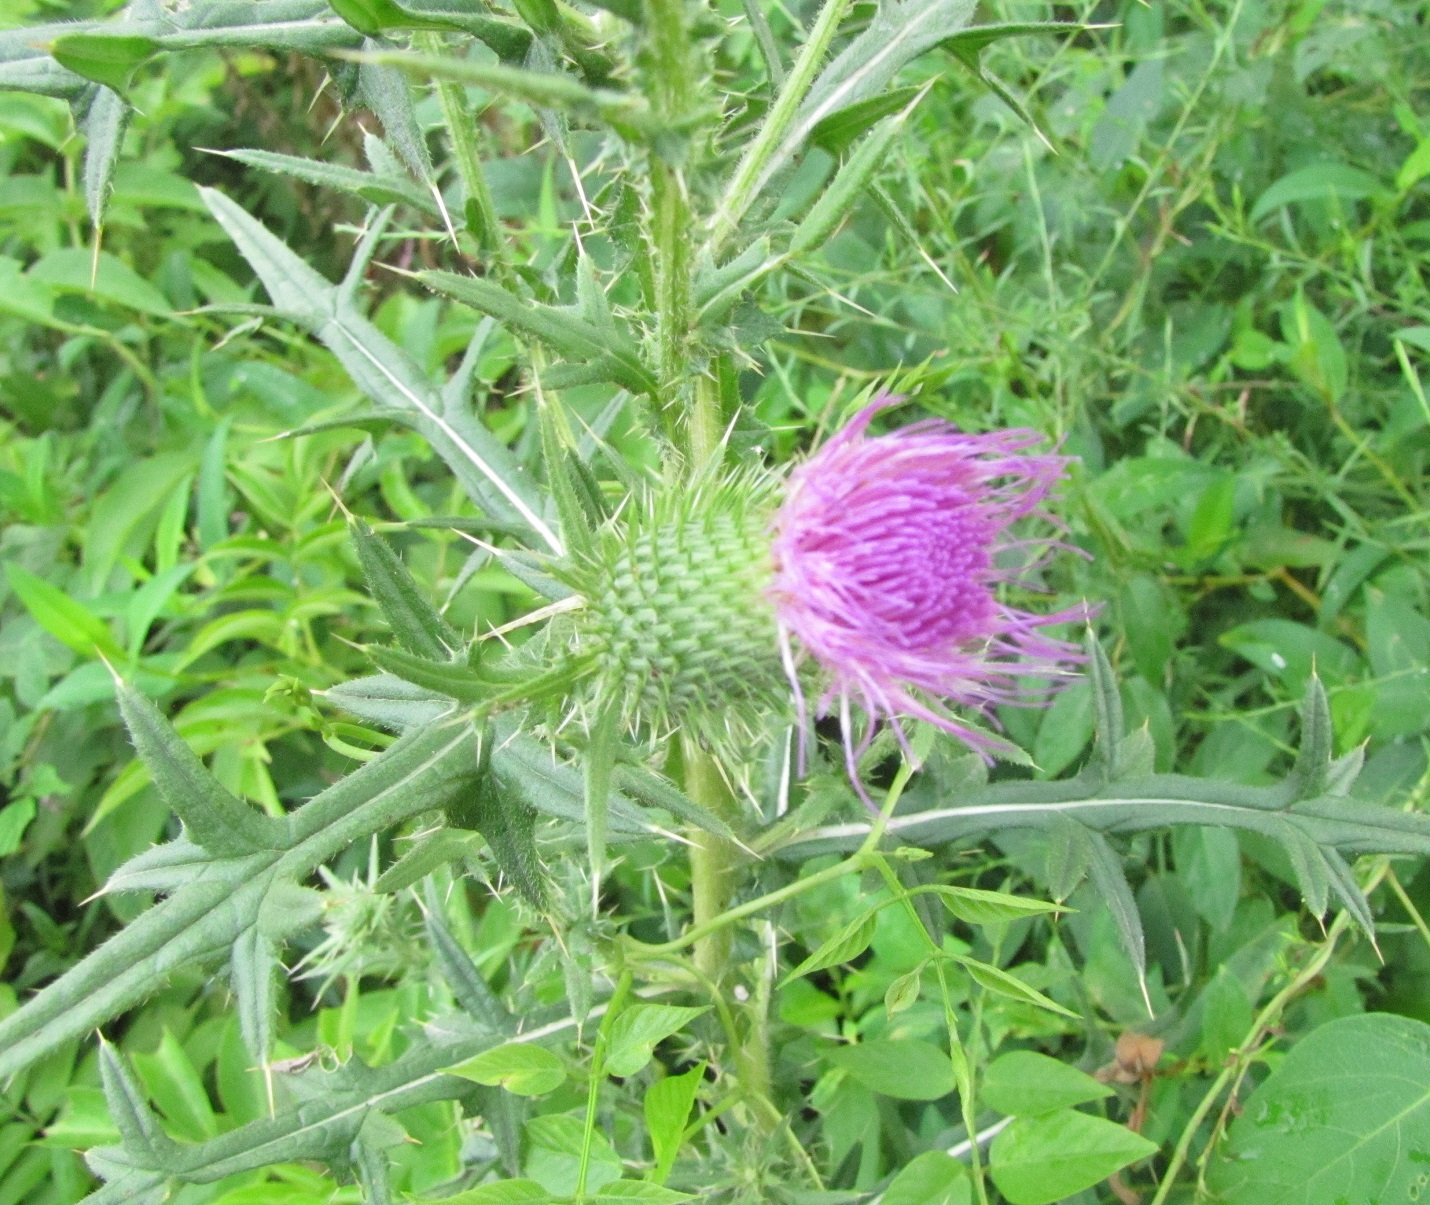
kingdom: Plantae
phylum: Tracheophyta
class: Magnoliopsida
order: Asterales
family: Asteraceae
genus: Cirsium
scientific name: Cirsium vulgare
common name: Bull thistle
